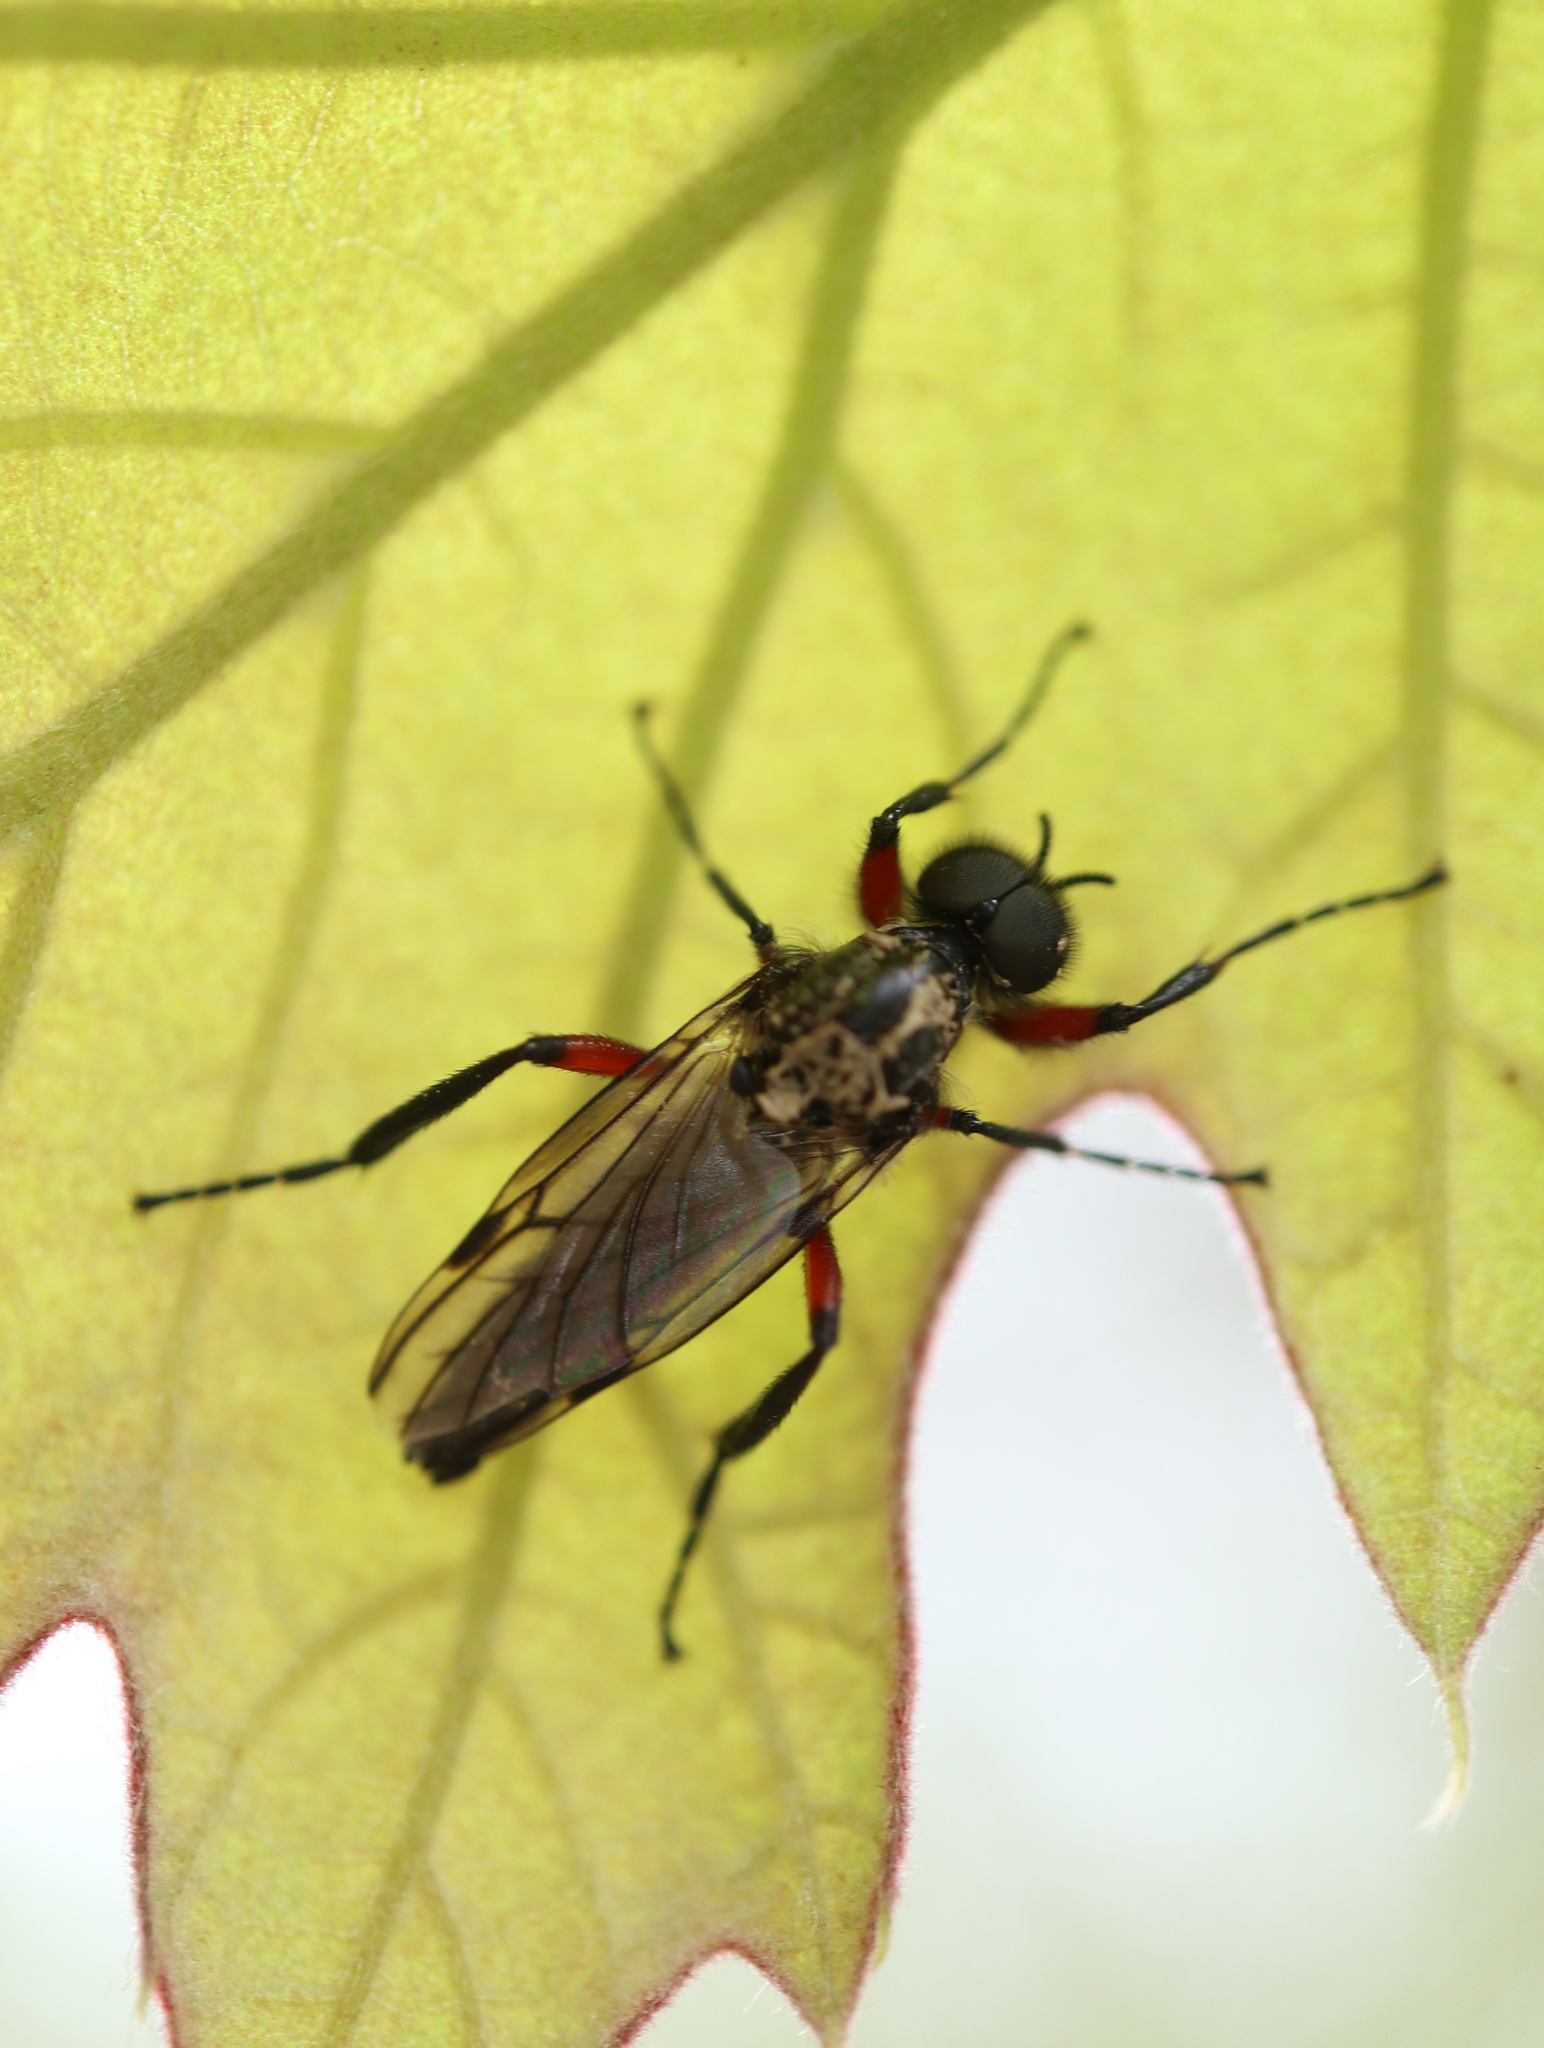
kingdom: Animalia
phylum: Arthropoda
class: Insecta
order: Diptera
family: Bibionidae
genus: Bibio
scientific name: Bibio femoratus
